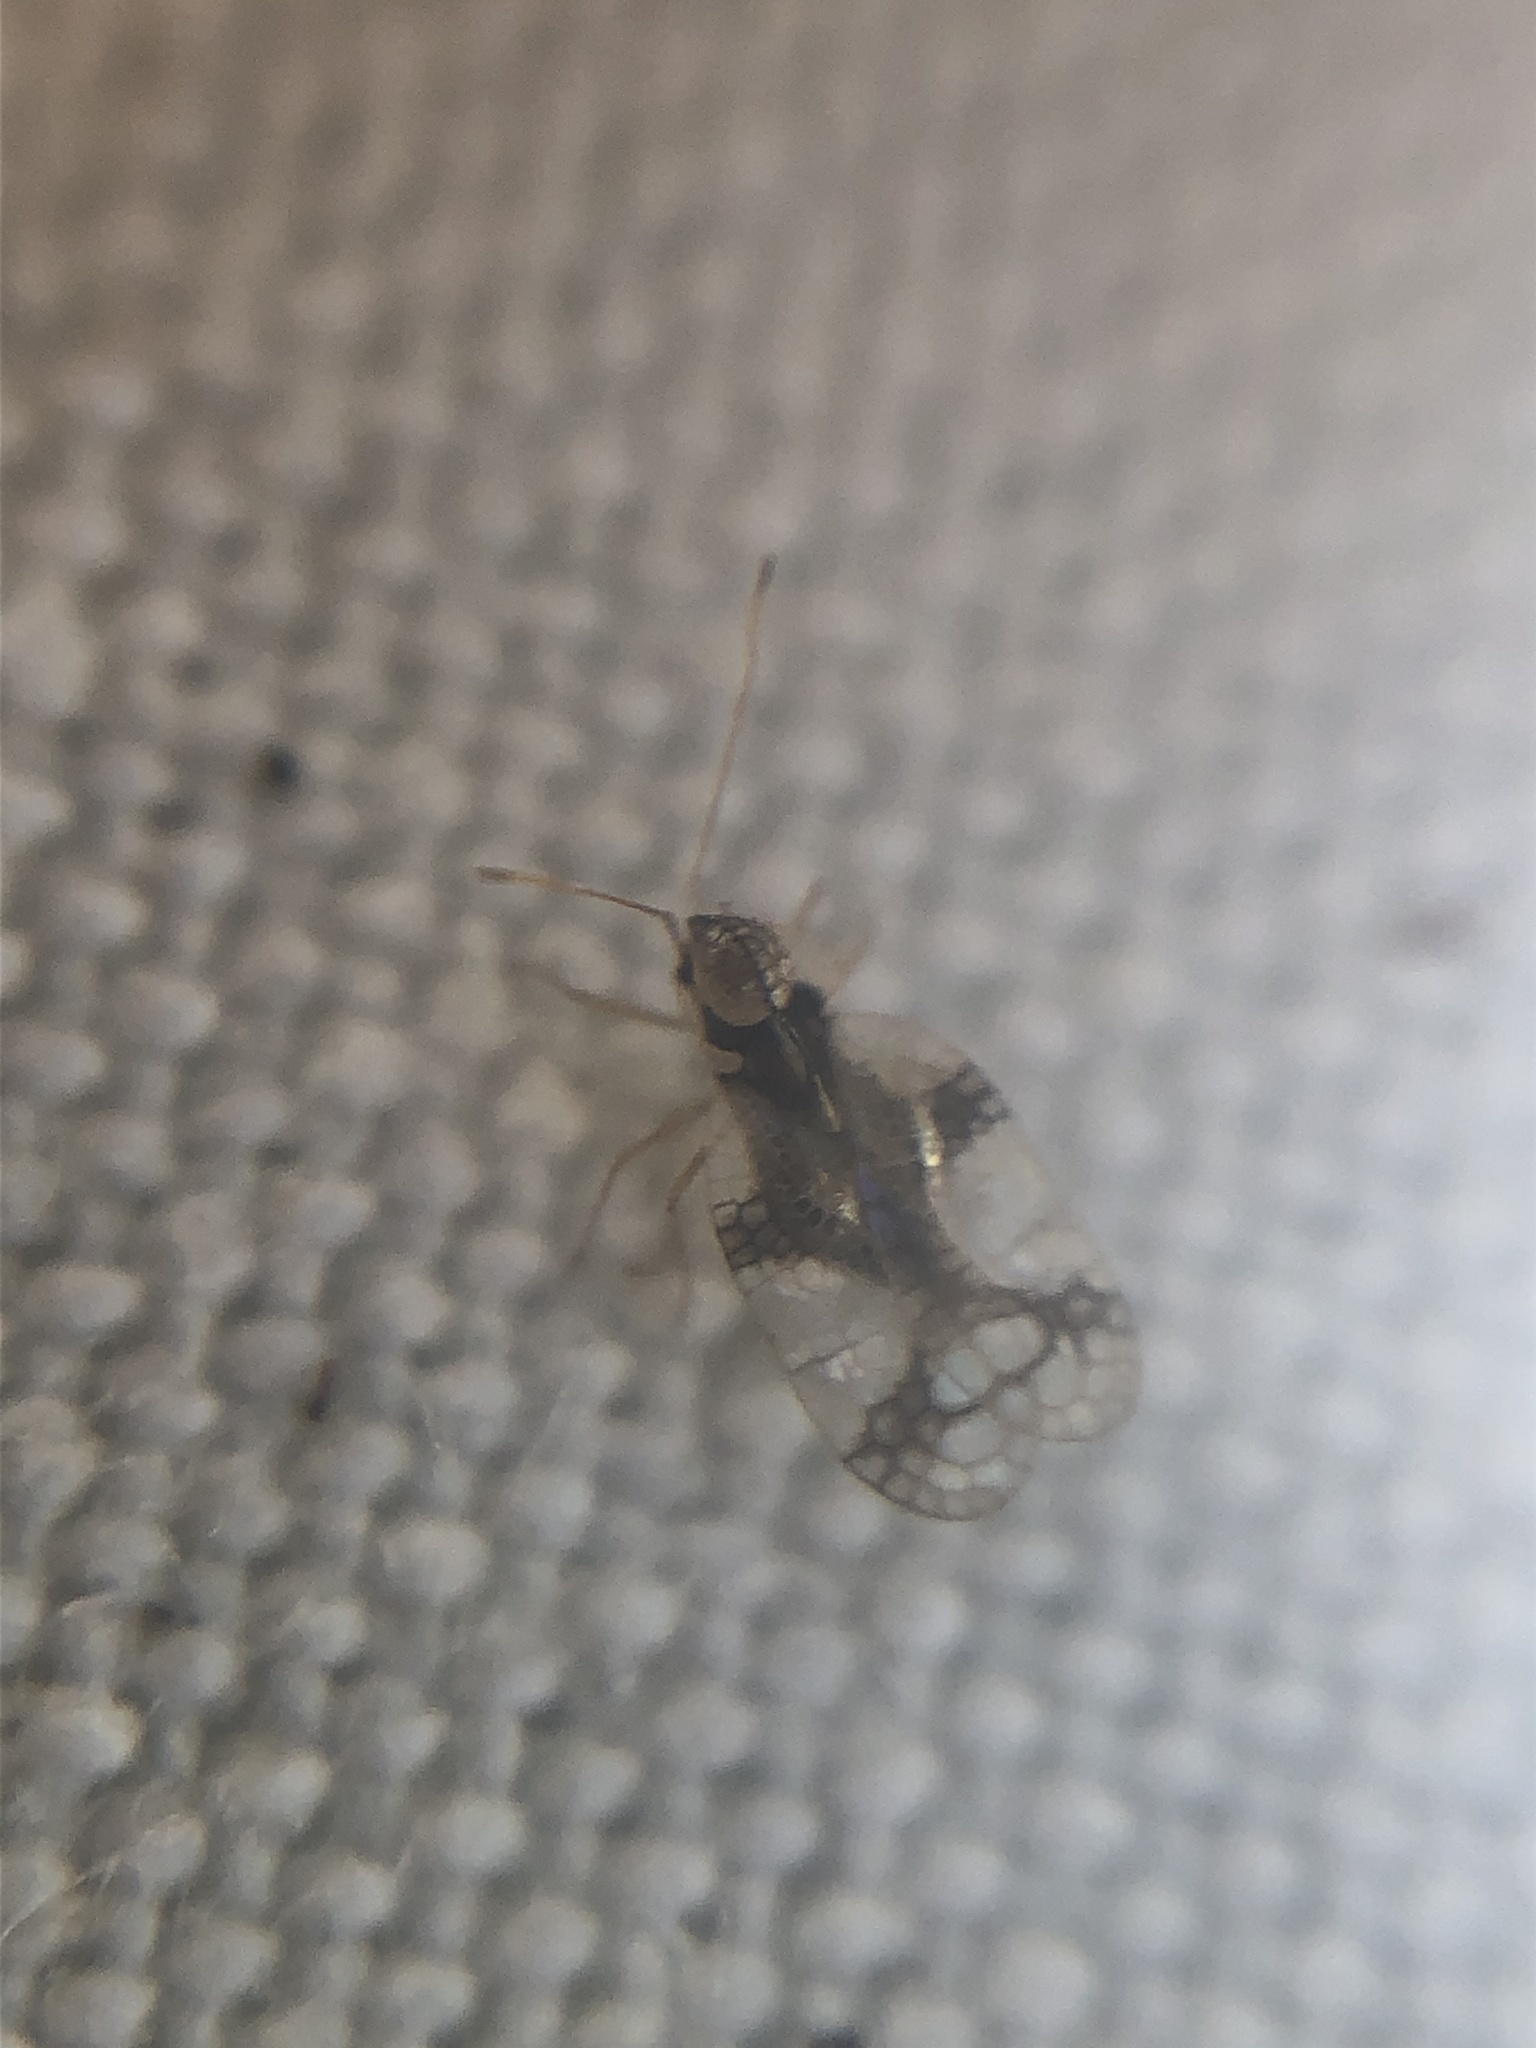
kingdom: Animalia
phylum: Arthropoda
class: Insecta
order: Hemiptera
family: Tingidae
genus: Stephanitis
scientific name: Stephanitis pyrioides
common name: Azalea lace bug
